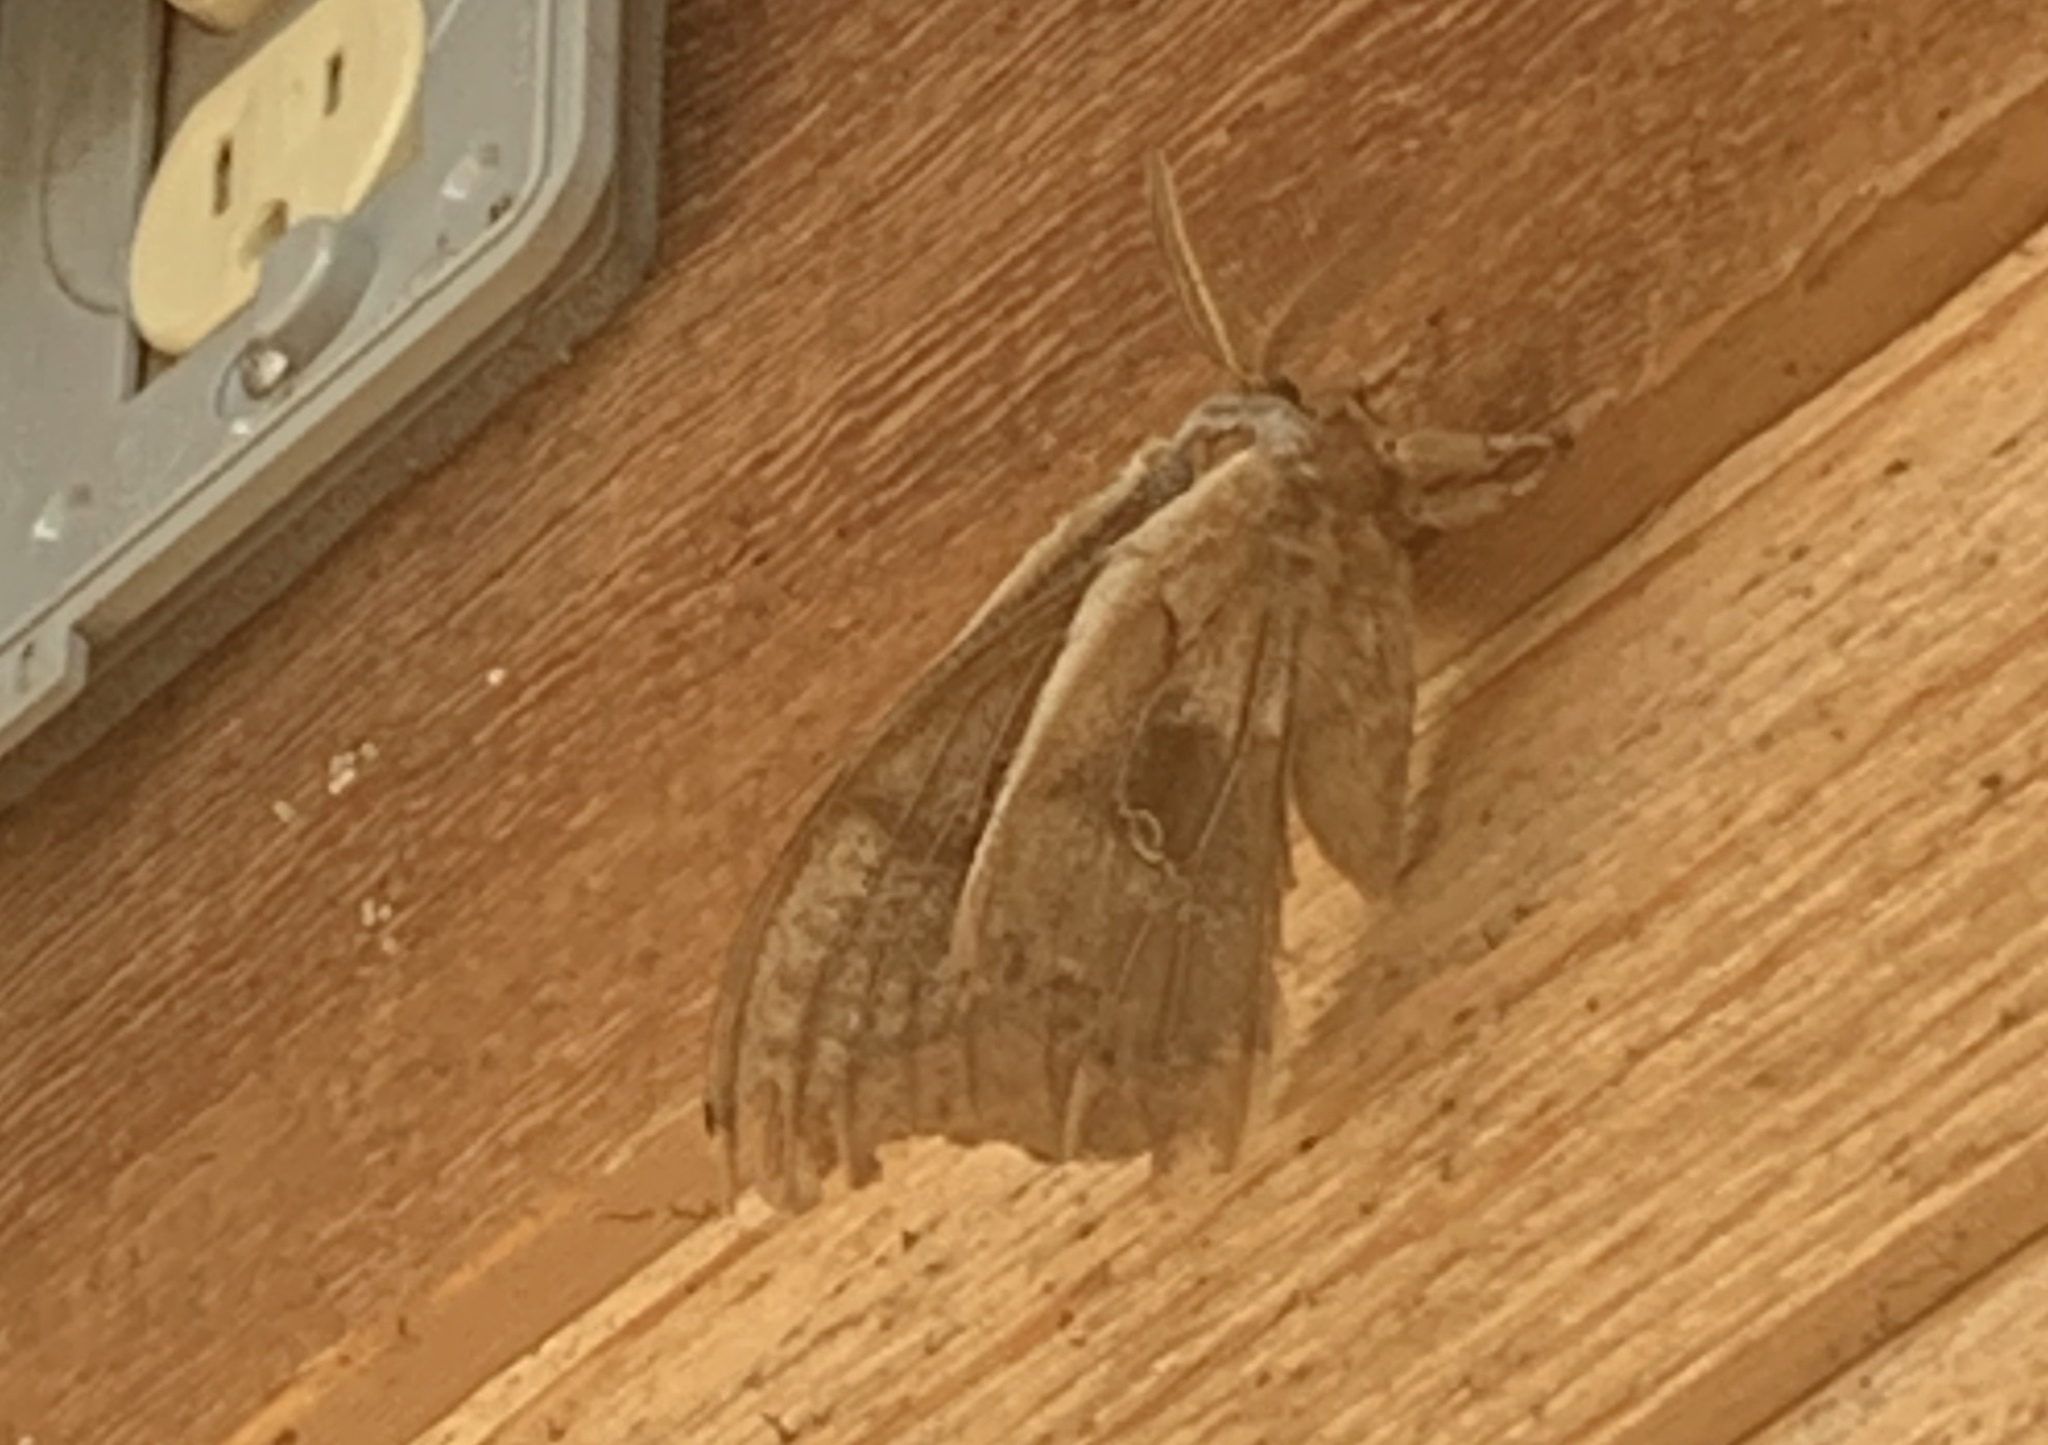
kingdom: Animalia
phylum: Arthropoda
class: Insecta
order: Lepidoptera
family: Saturniidae
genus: Antheraea
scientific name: Antheraea polyphemus
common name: Polyphemus moth
